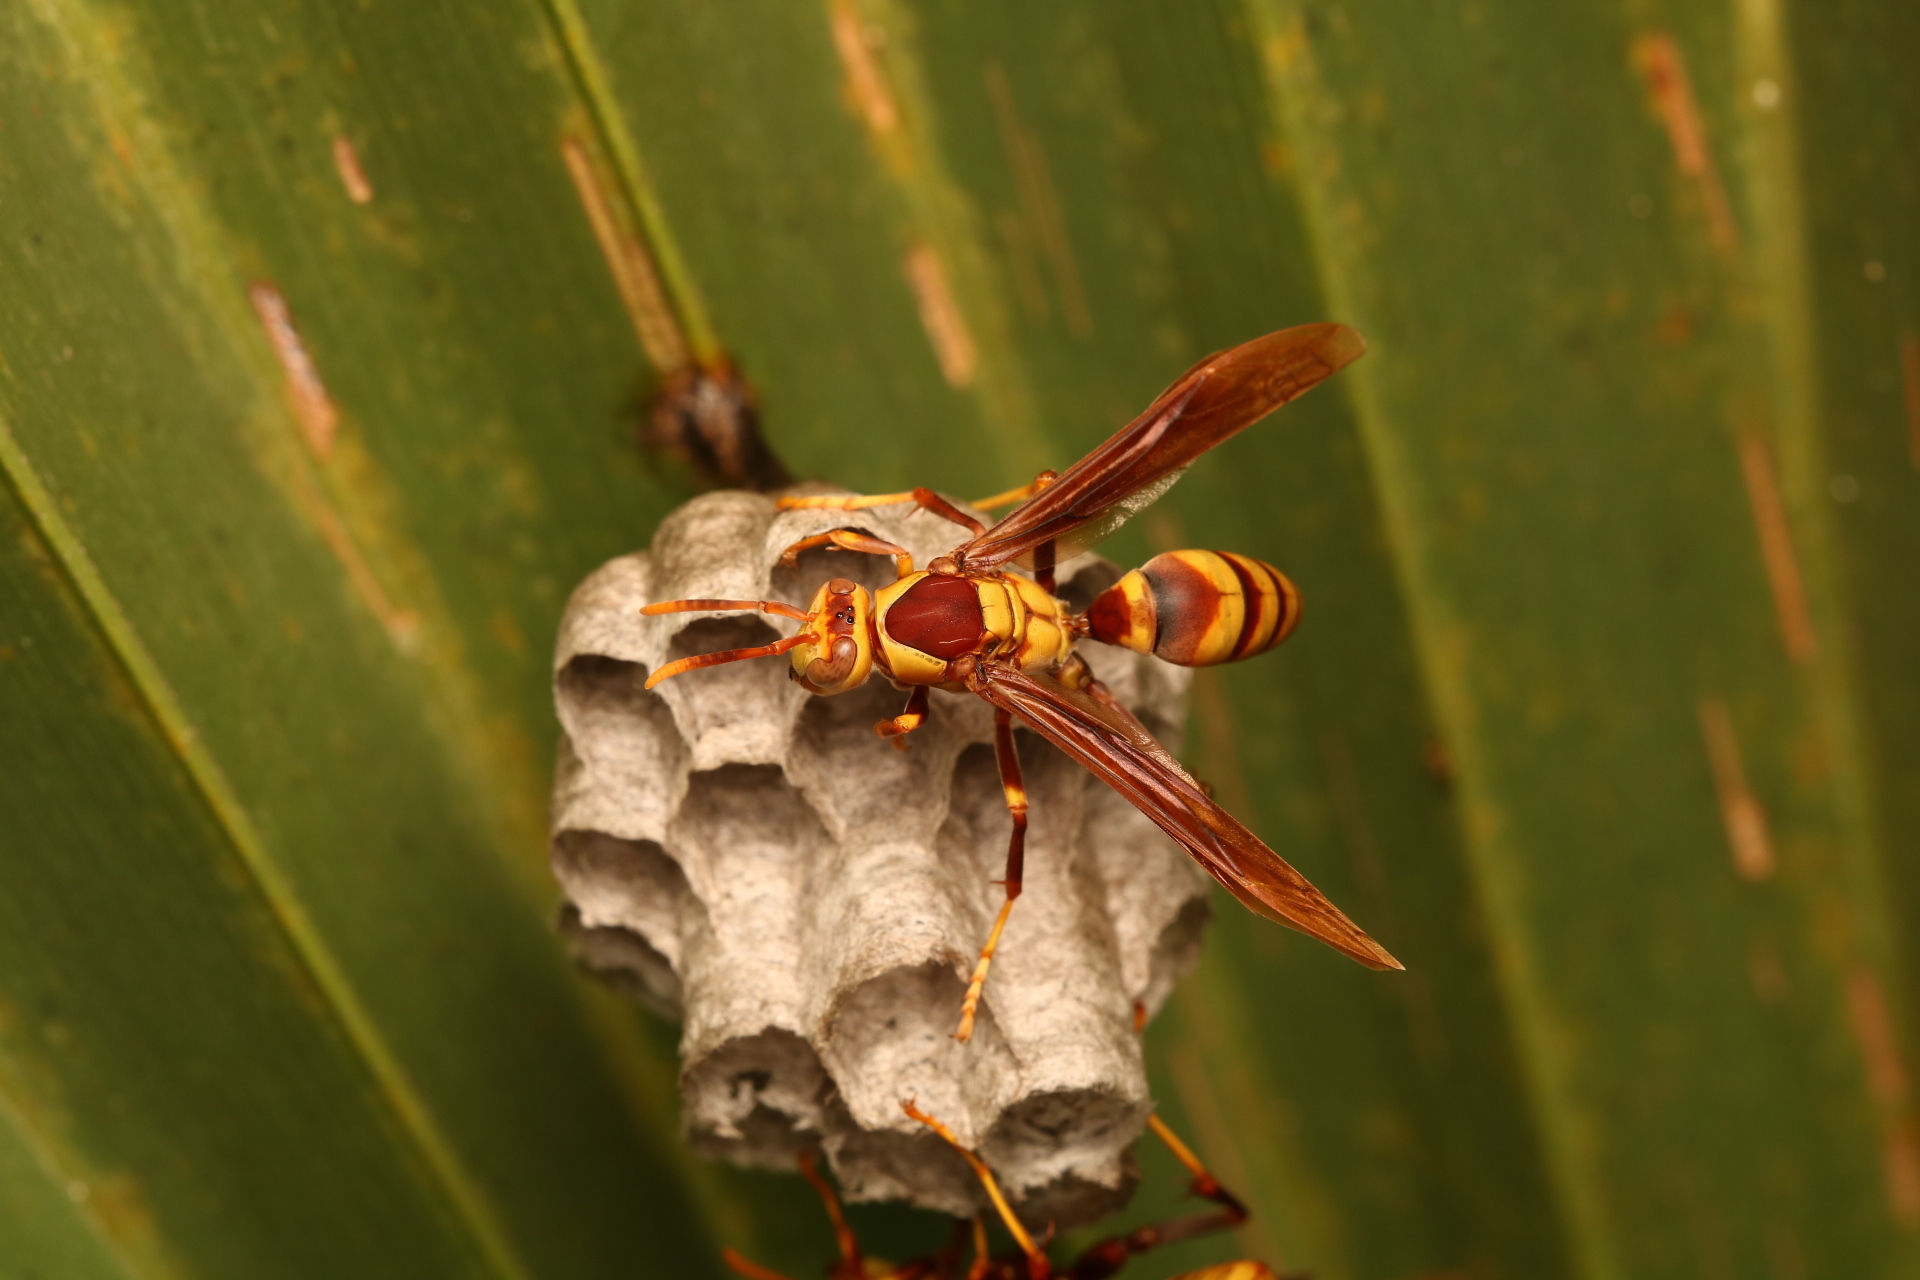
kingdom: Animalia
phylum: Arthropoda
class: Insecta
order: Hymenoptera
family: Eumenidae
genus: Polistes
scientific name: Polistes major
